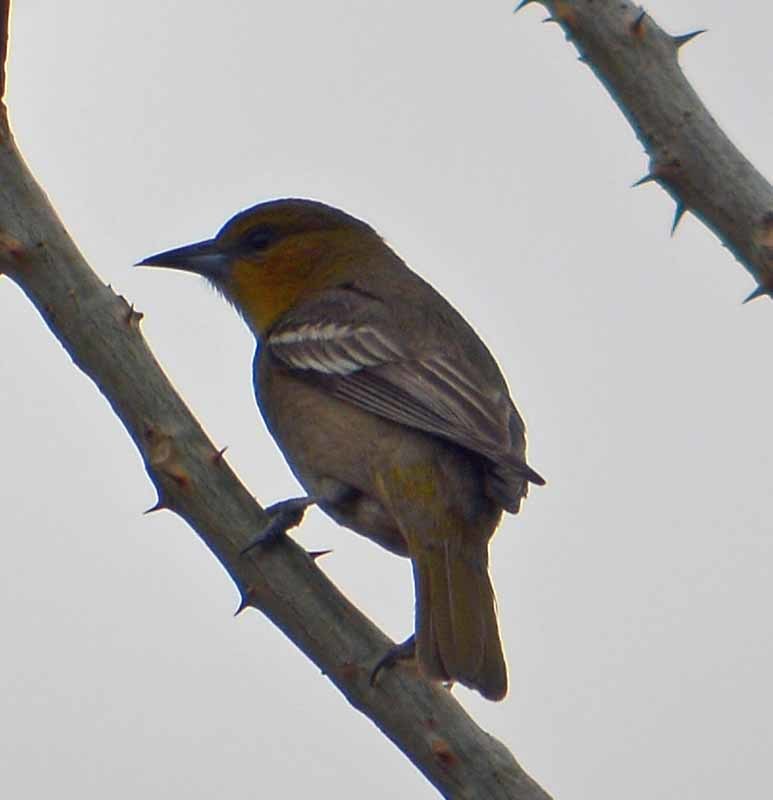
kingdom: Animalia
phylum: Chordata
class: Aves
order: Passeriformes
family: Icteridae
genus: Icterus
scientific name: Icterus abeillei
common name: Black-backed oriole
